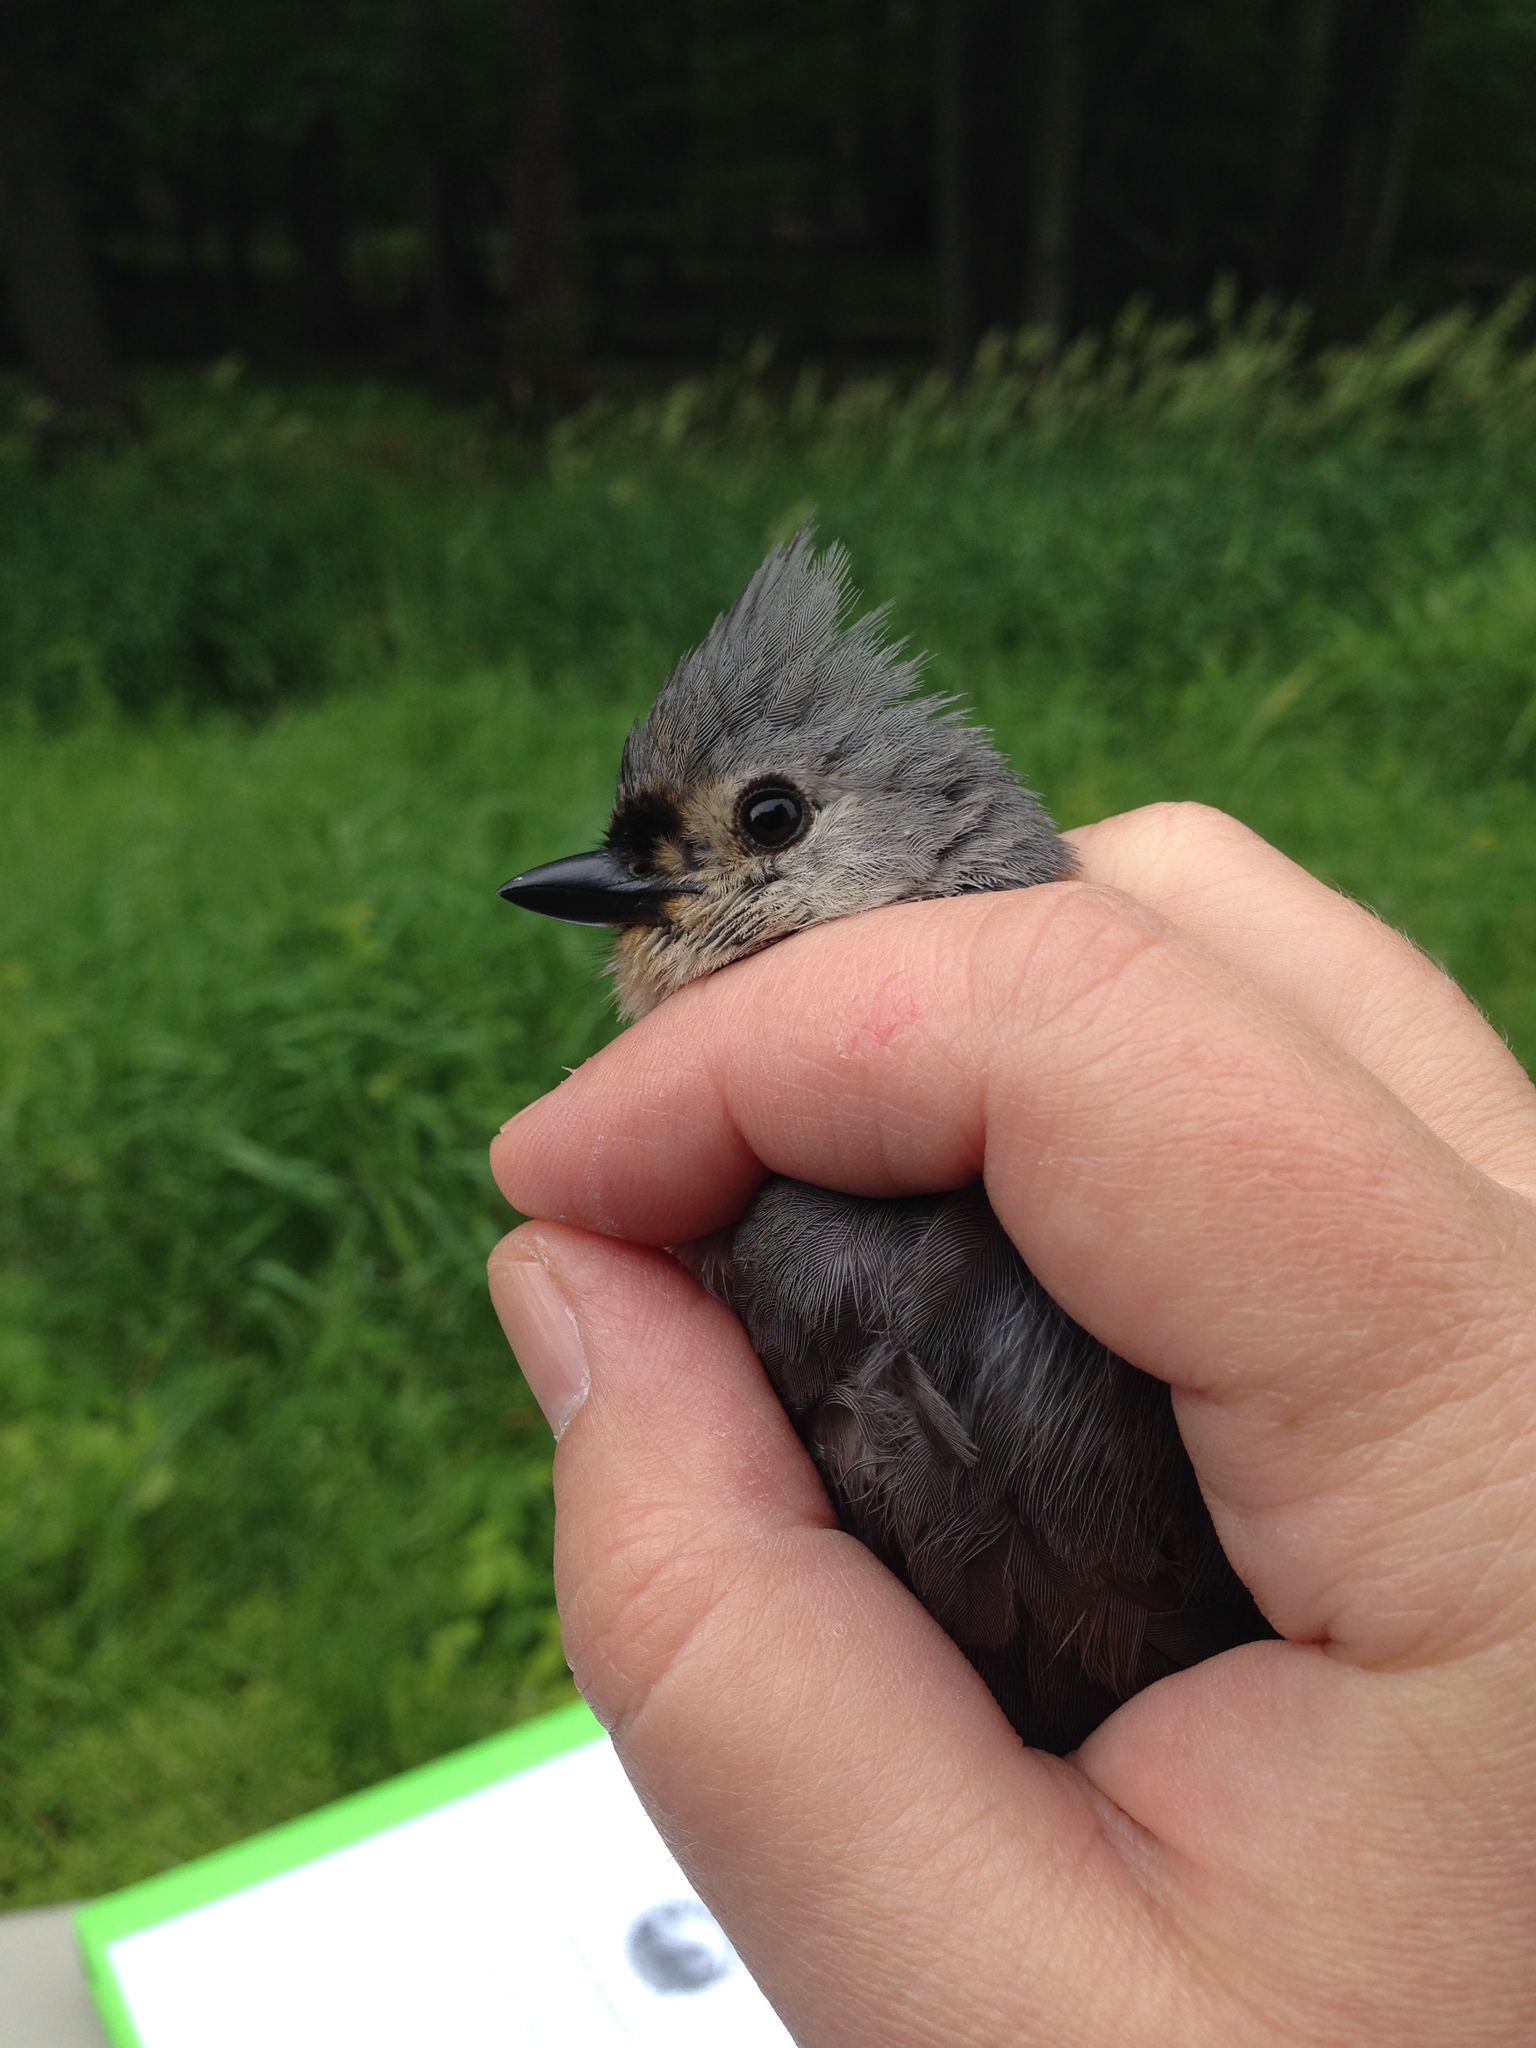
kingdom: Animalia
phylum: Chordata
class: Aves
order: Passeriformes
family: Paridae
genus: Baeolophus
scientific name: Baeolophus bicolor
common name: Tufted titmouse
